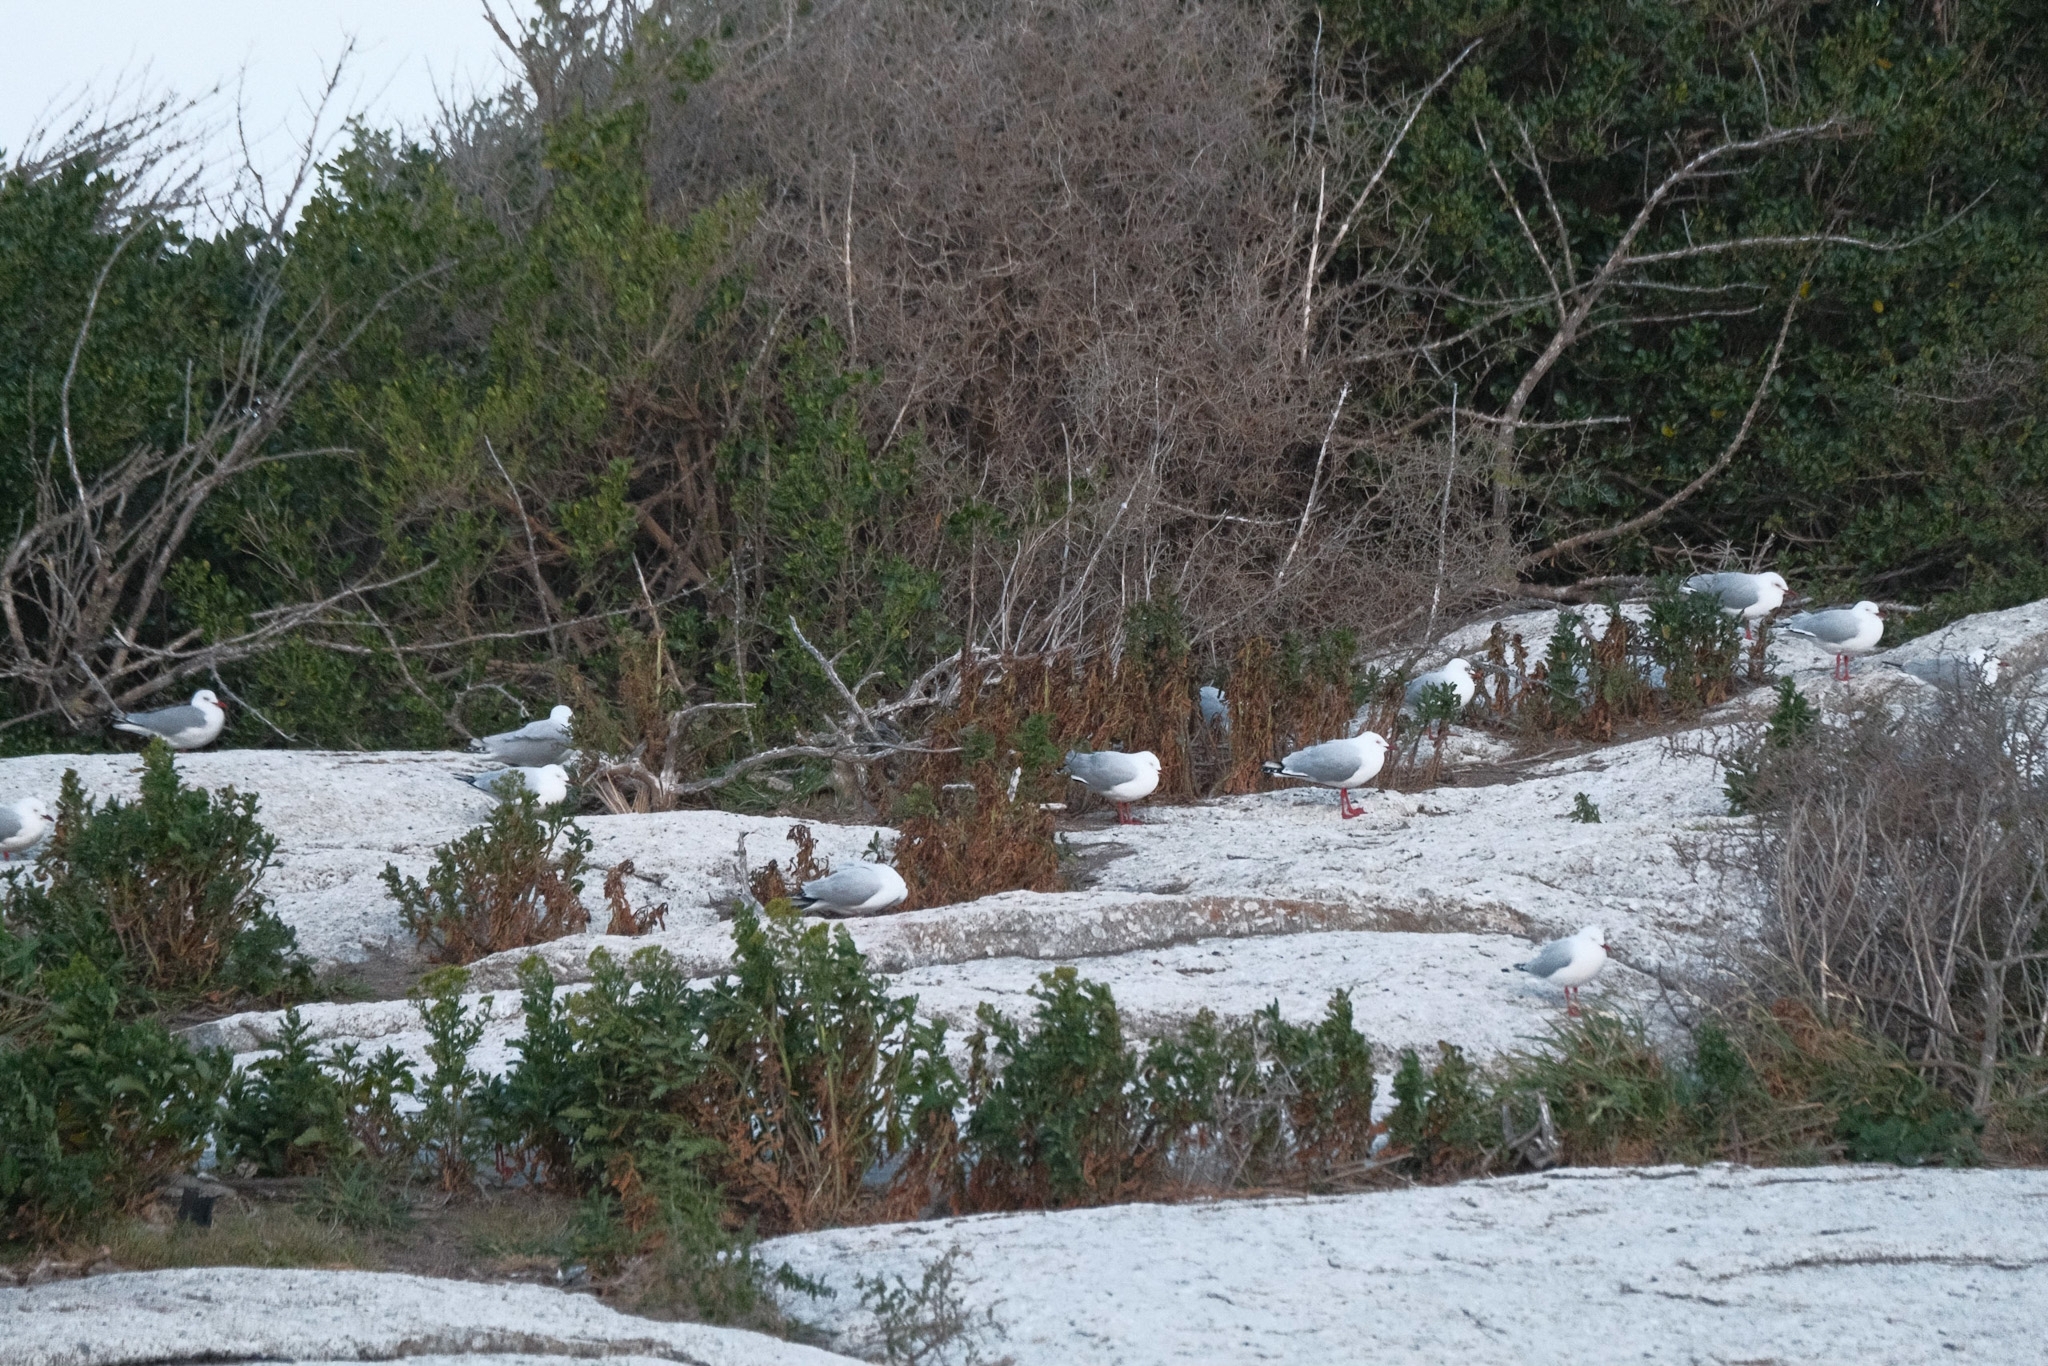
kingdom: Animalia
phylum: Chordata
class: Aves
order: Charadriiformes
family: Laridae
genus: Chroicocephalus
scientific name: Chroicocephalus novaehollandiae
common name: Silver gull
